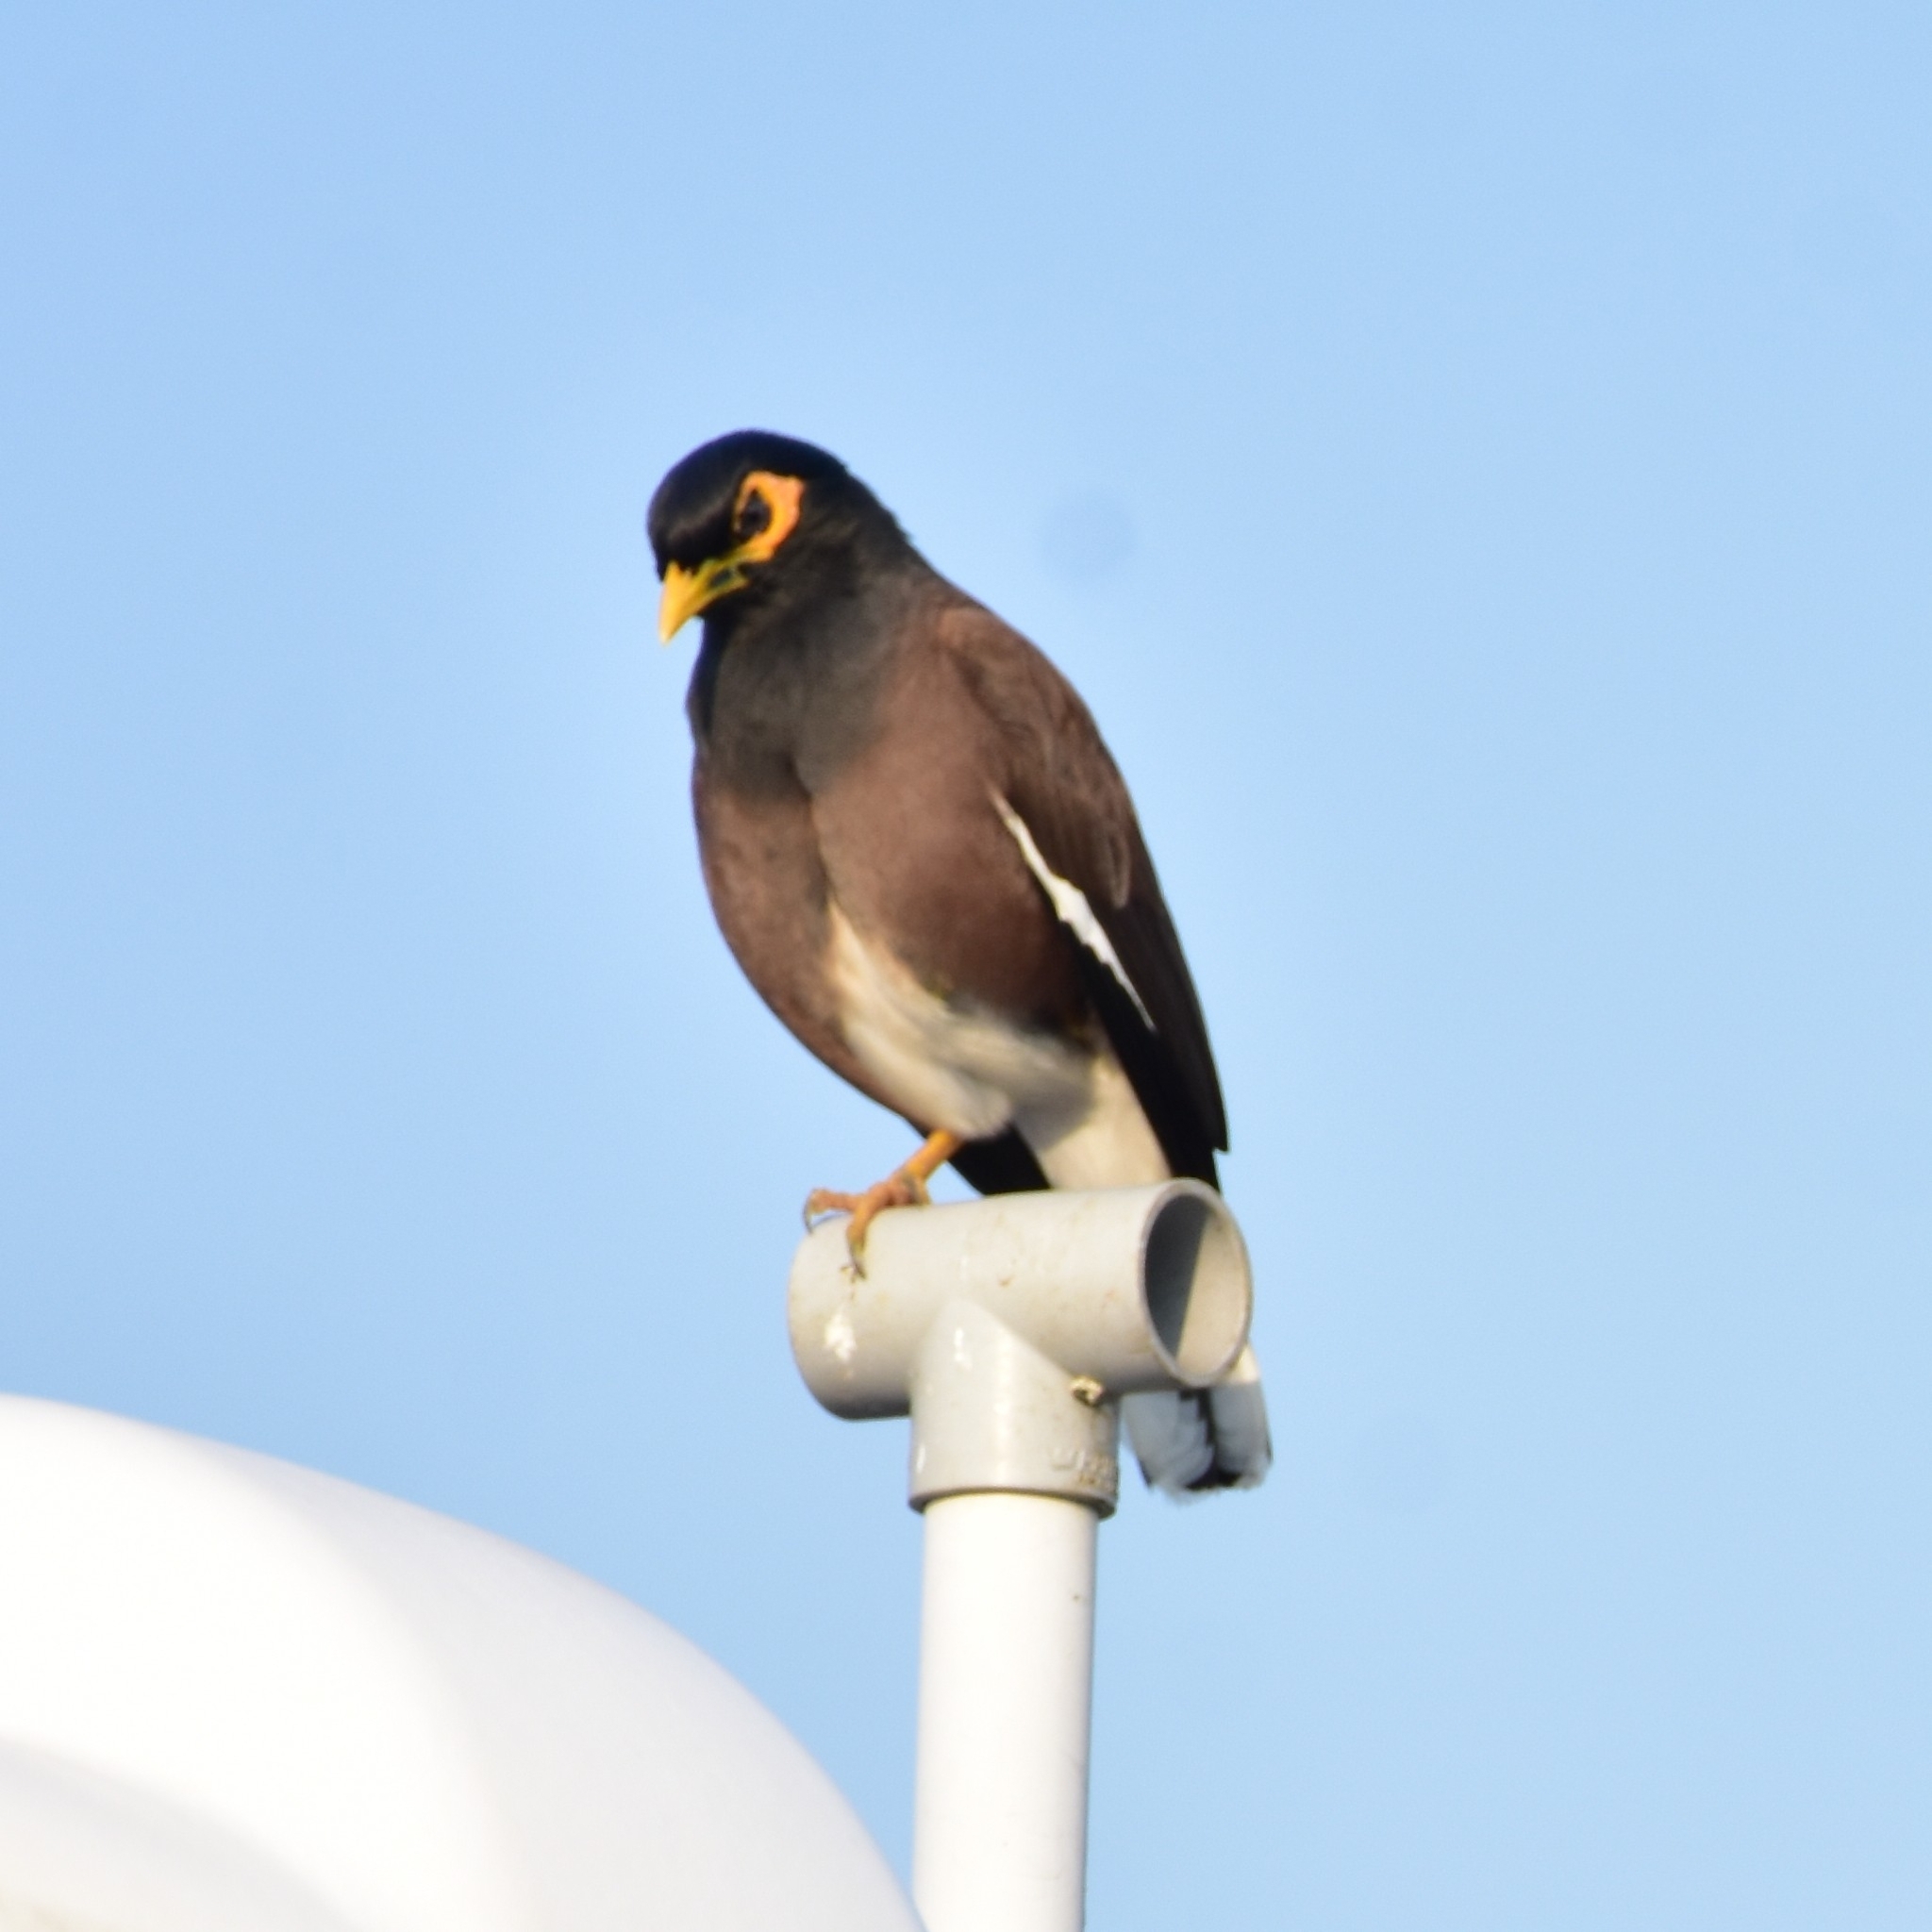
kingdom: Animalia
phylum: Chordata
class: Aves
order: Passeriformes
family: Sturnidae
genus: Acridotheres
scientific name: Acridotheres tristis
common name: Common myna
